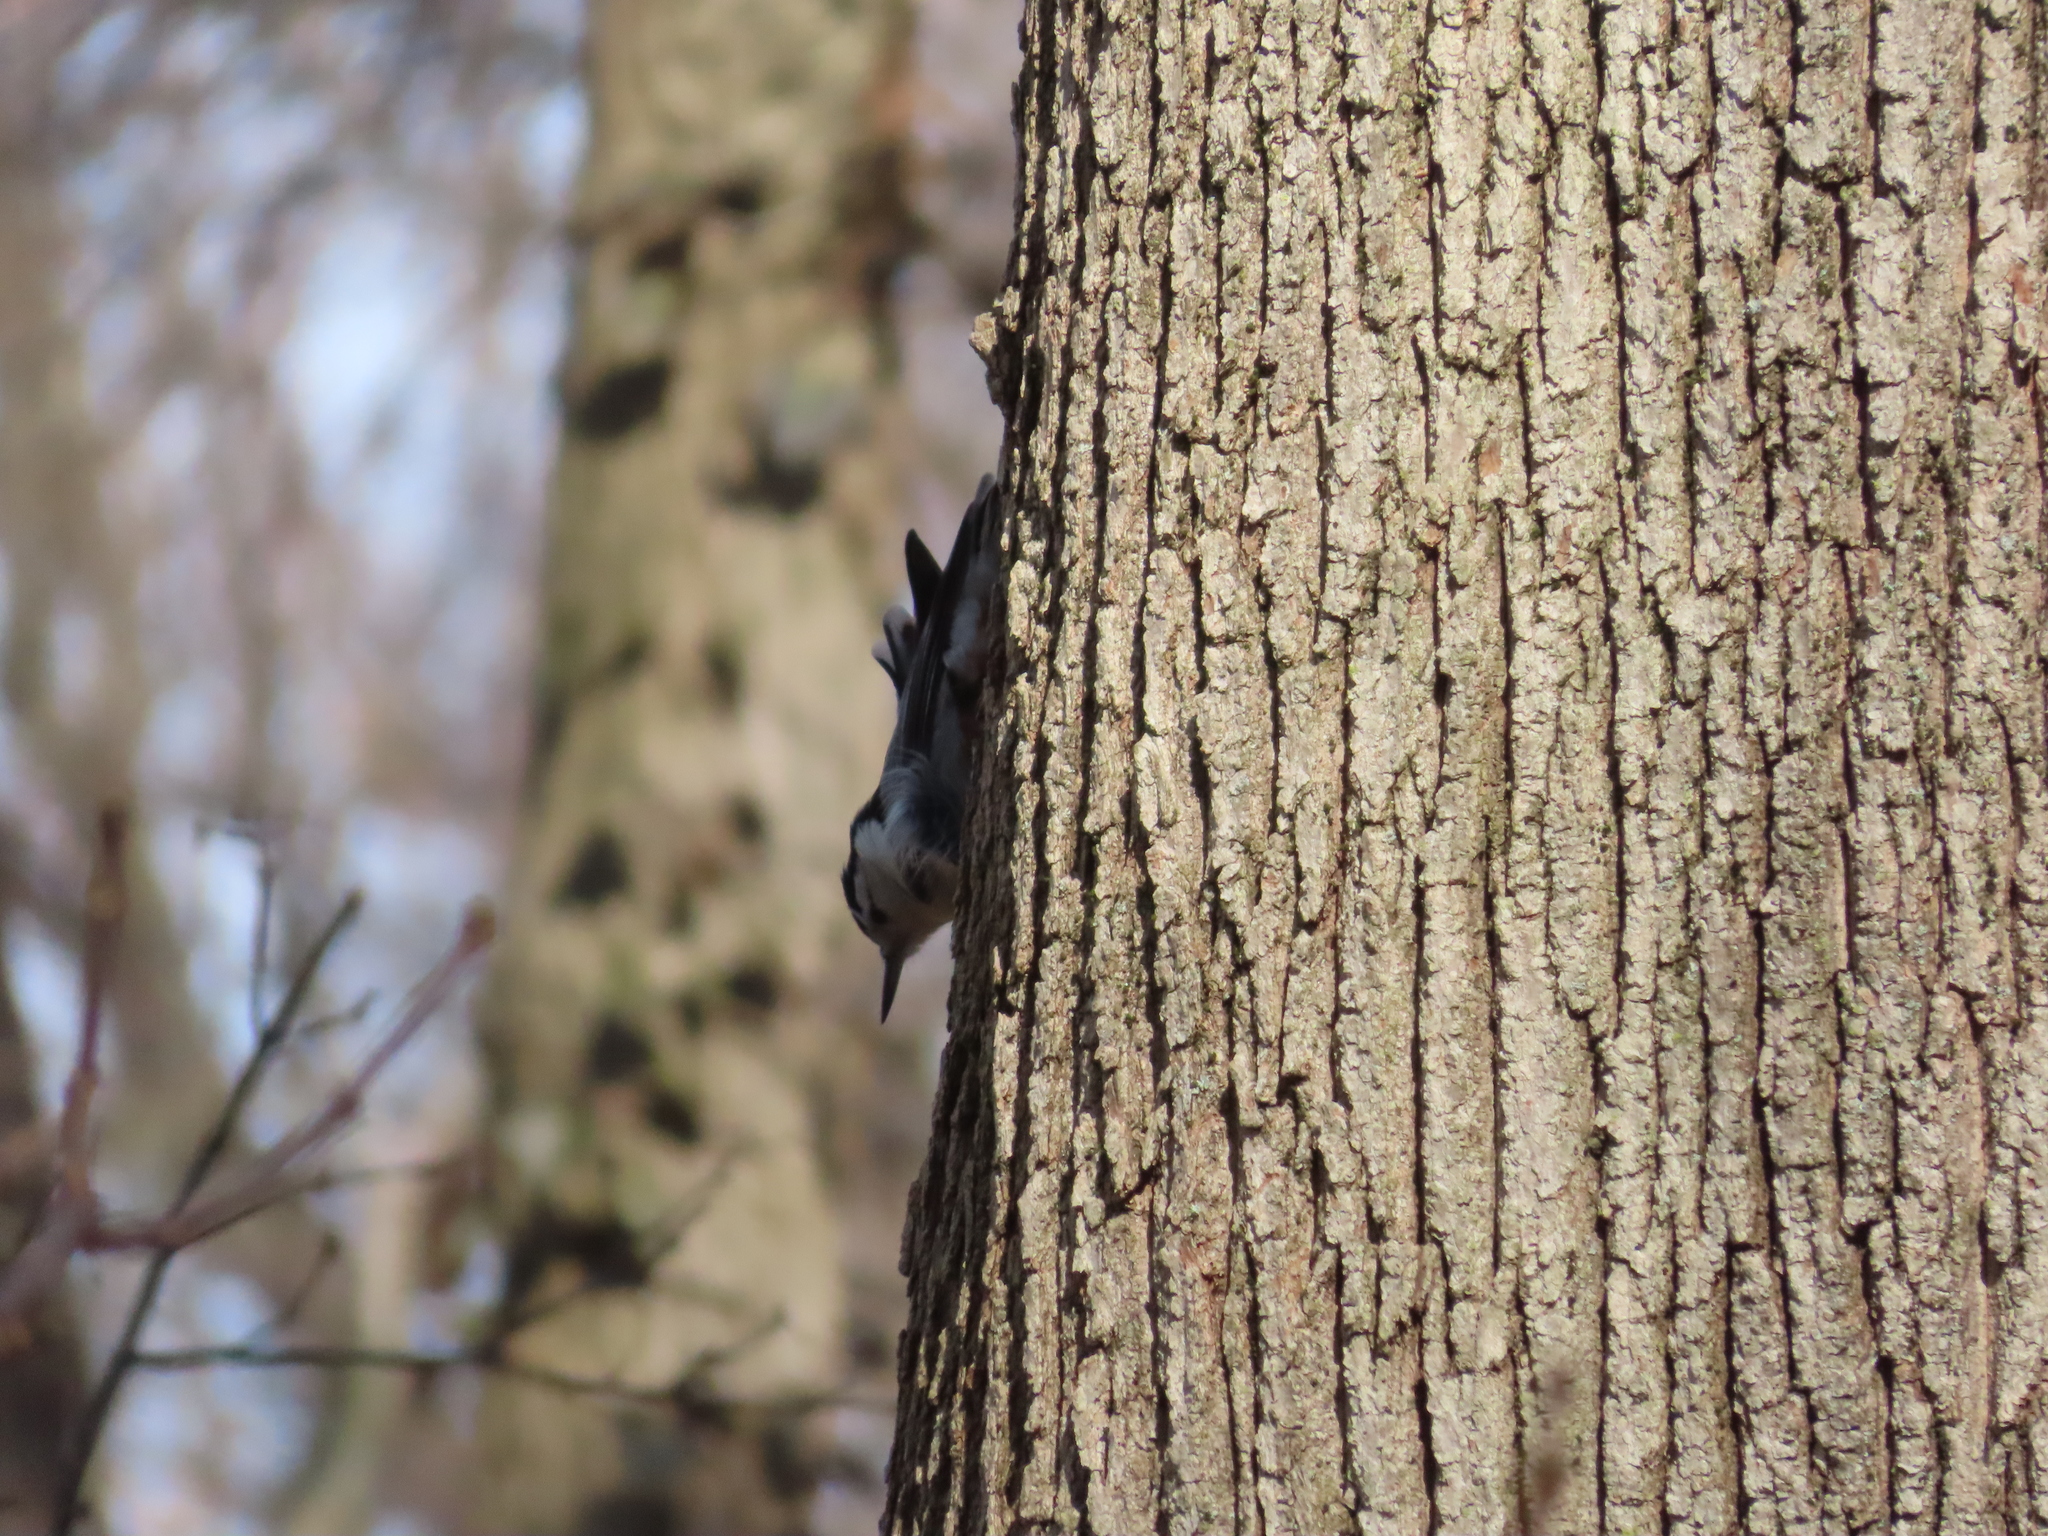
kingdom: Animalia
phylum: Chordata
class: Aves
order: Passeriformes
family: Sittidae
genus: Sitta
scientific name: Sitta carolinensis
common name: White-breasted nuthatch
